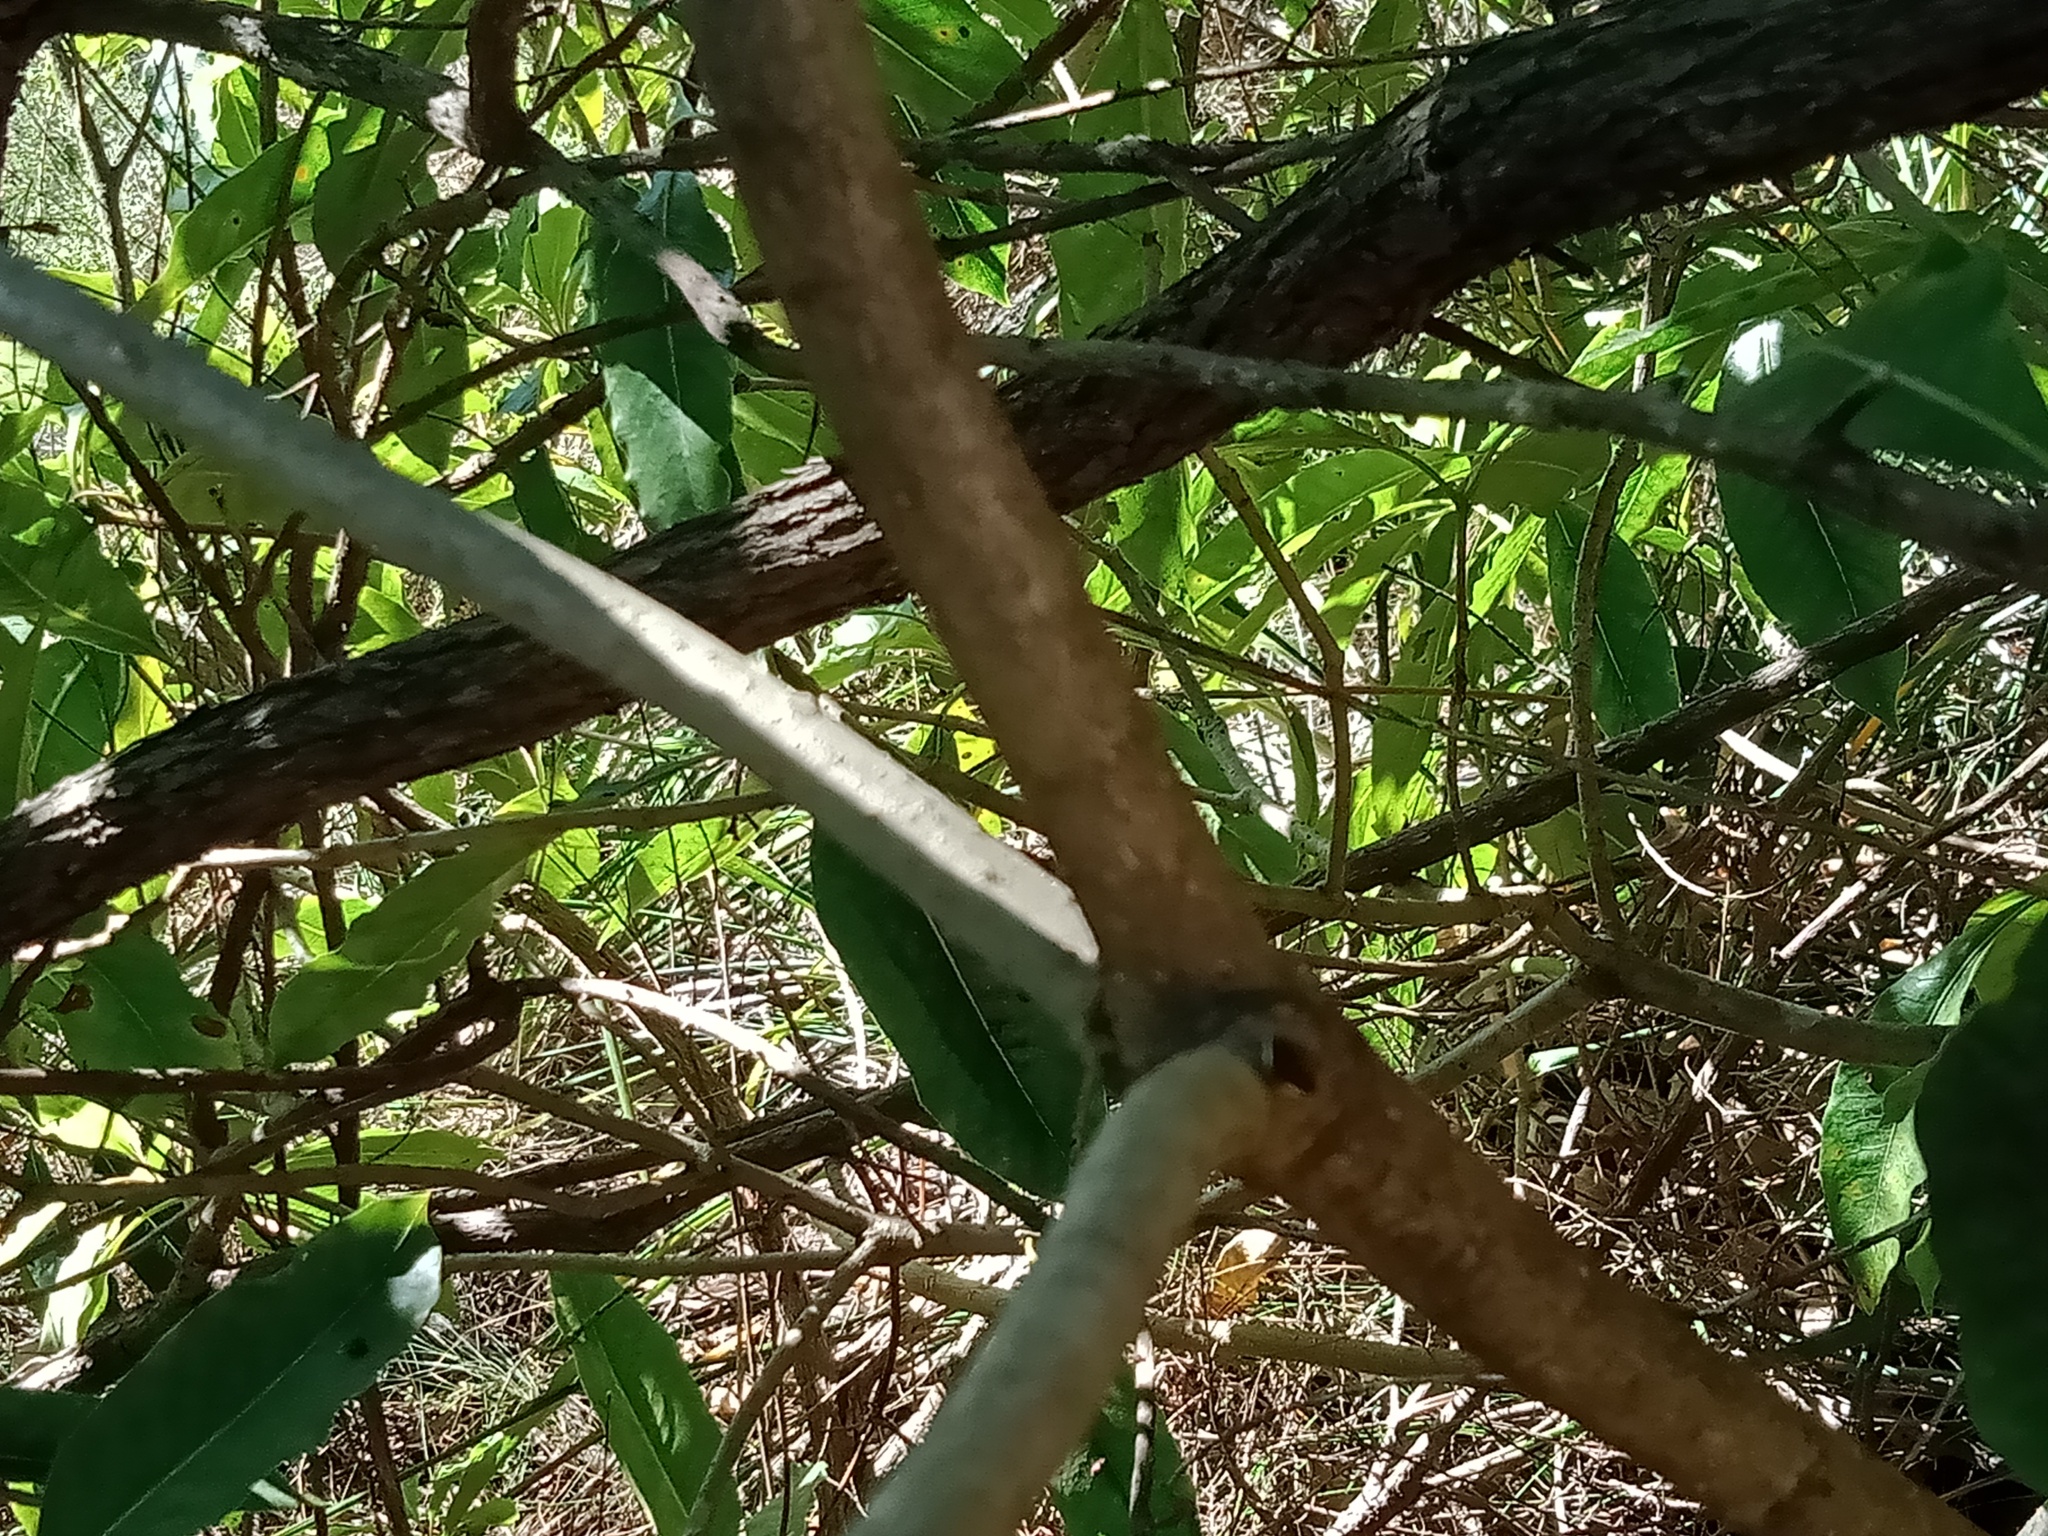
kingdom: Animalia
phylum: Arthropoda
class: Insecta
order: Hemiptera
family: Pentatomidae
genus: Monteithiella
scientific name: Monteithiella
